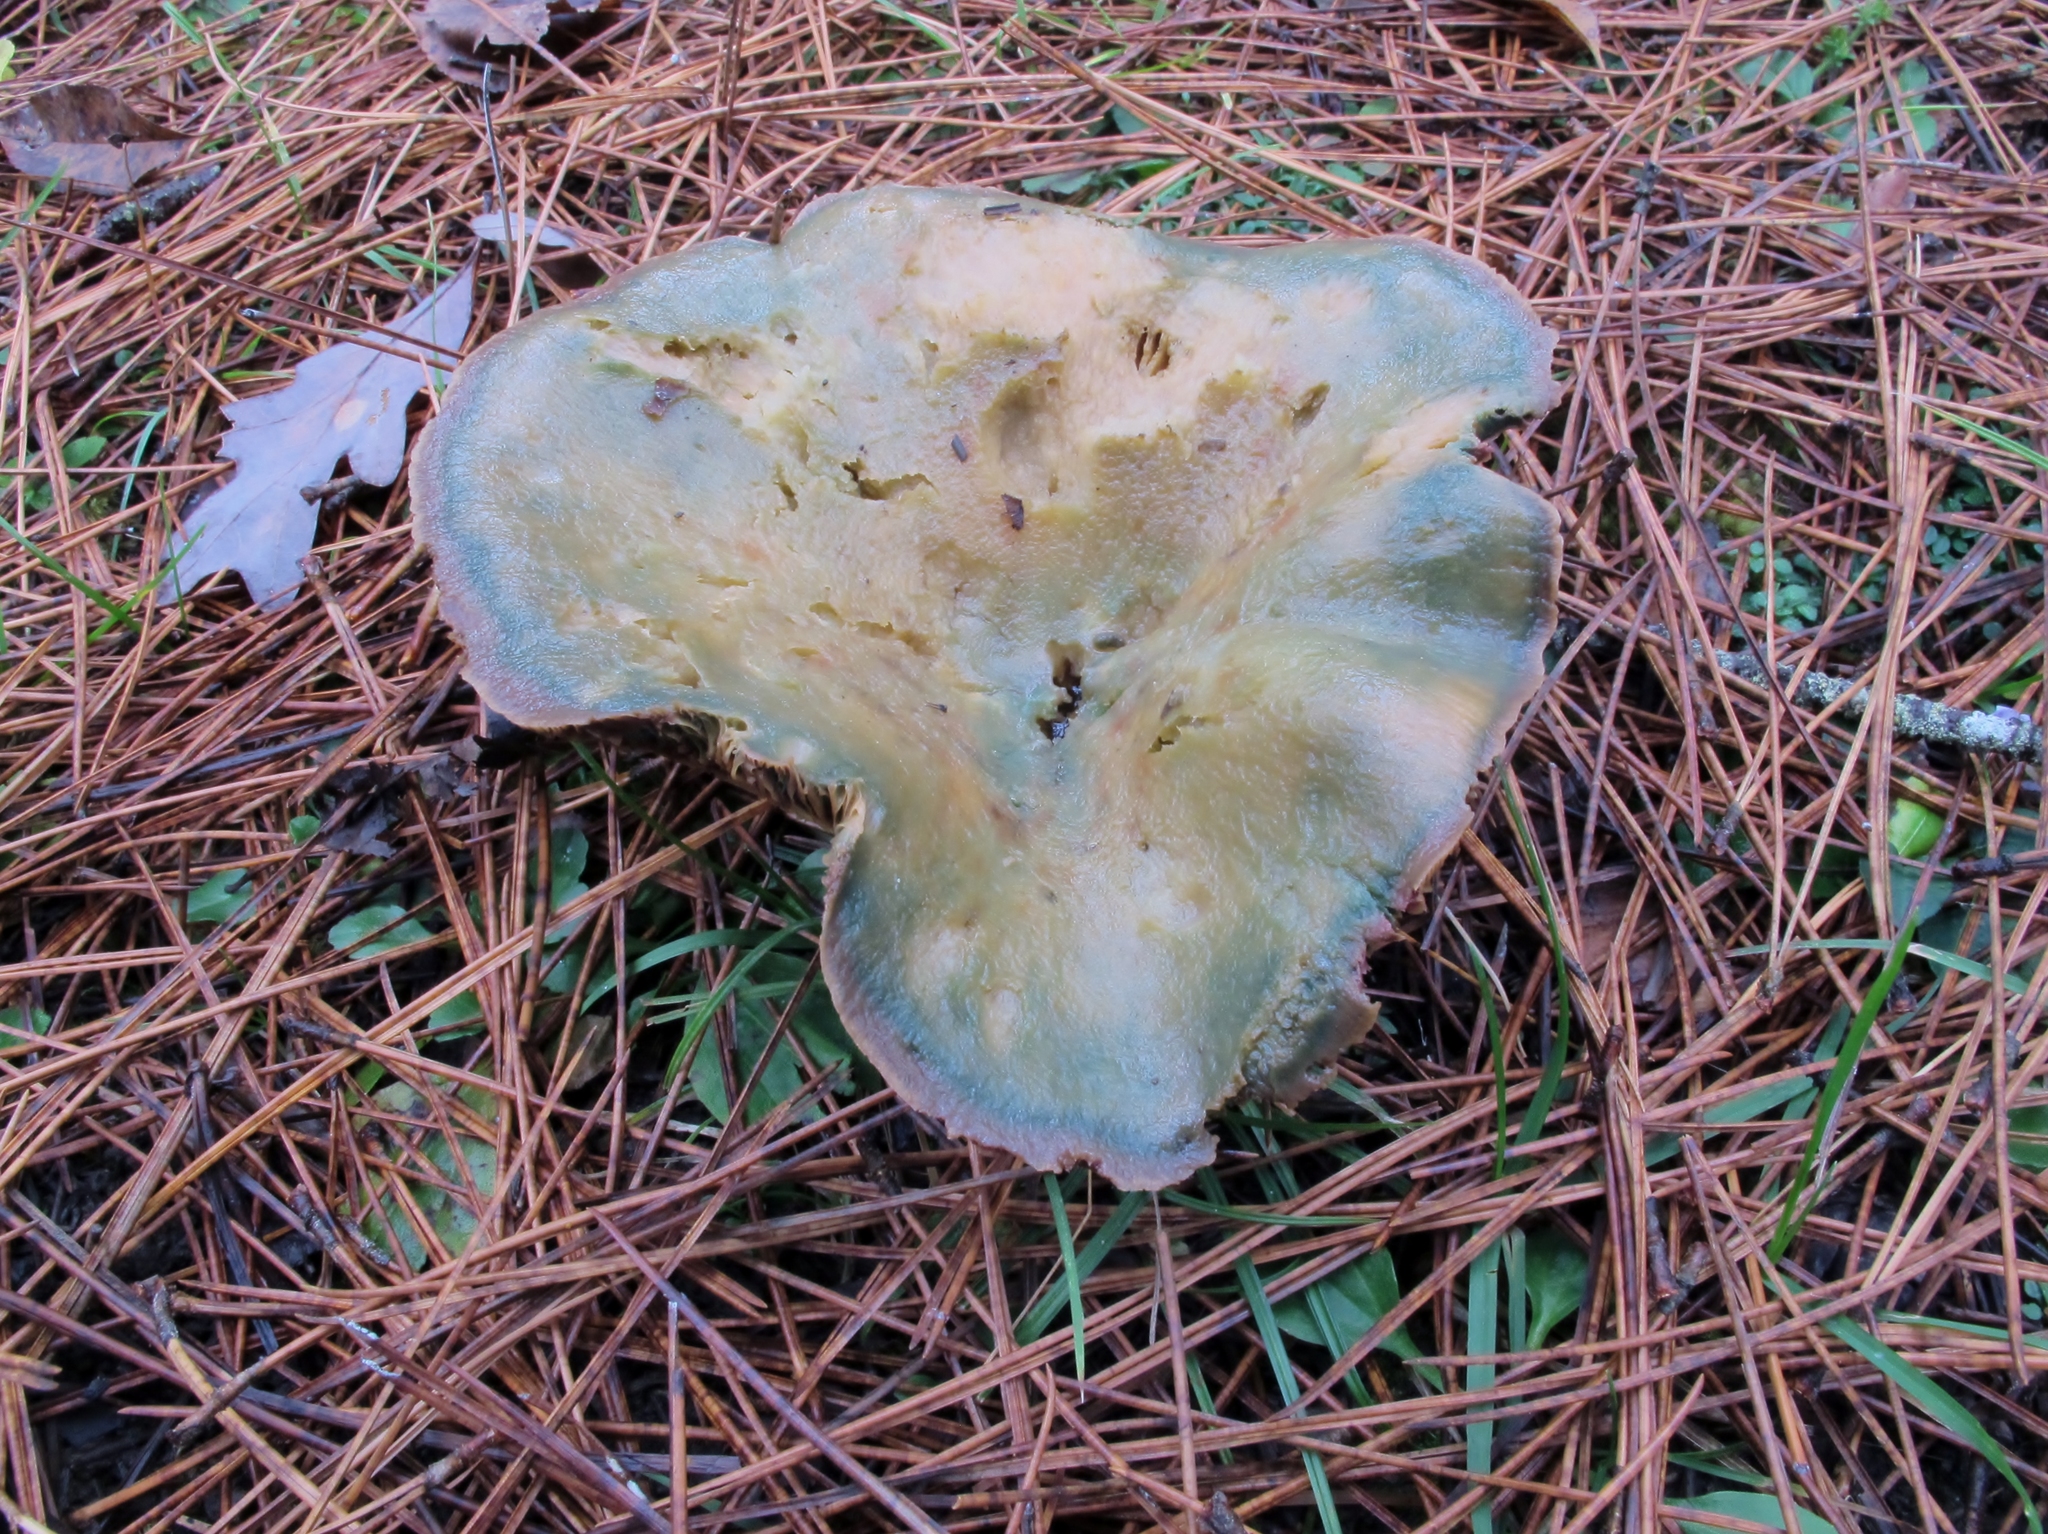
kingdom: Fungi
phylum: Basidiomycota
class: Agaricomycetes
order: Russulales
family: Russulaceae
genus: Lactarius
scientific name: Lactarius chelidonium
